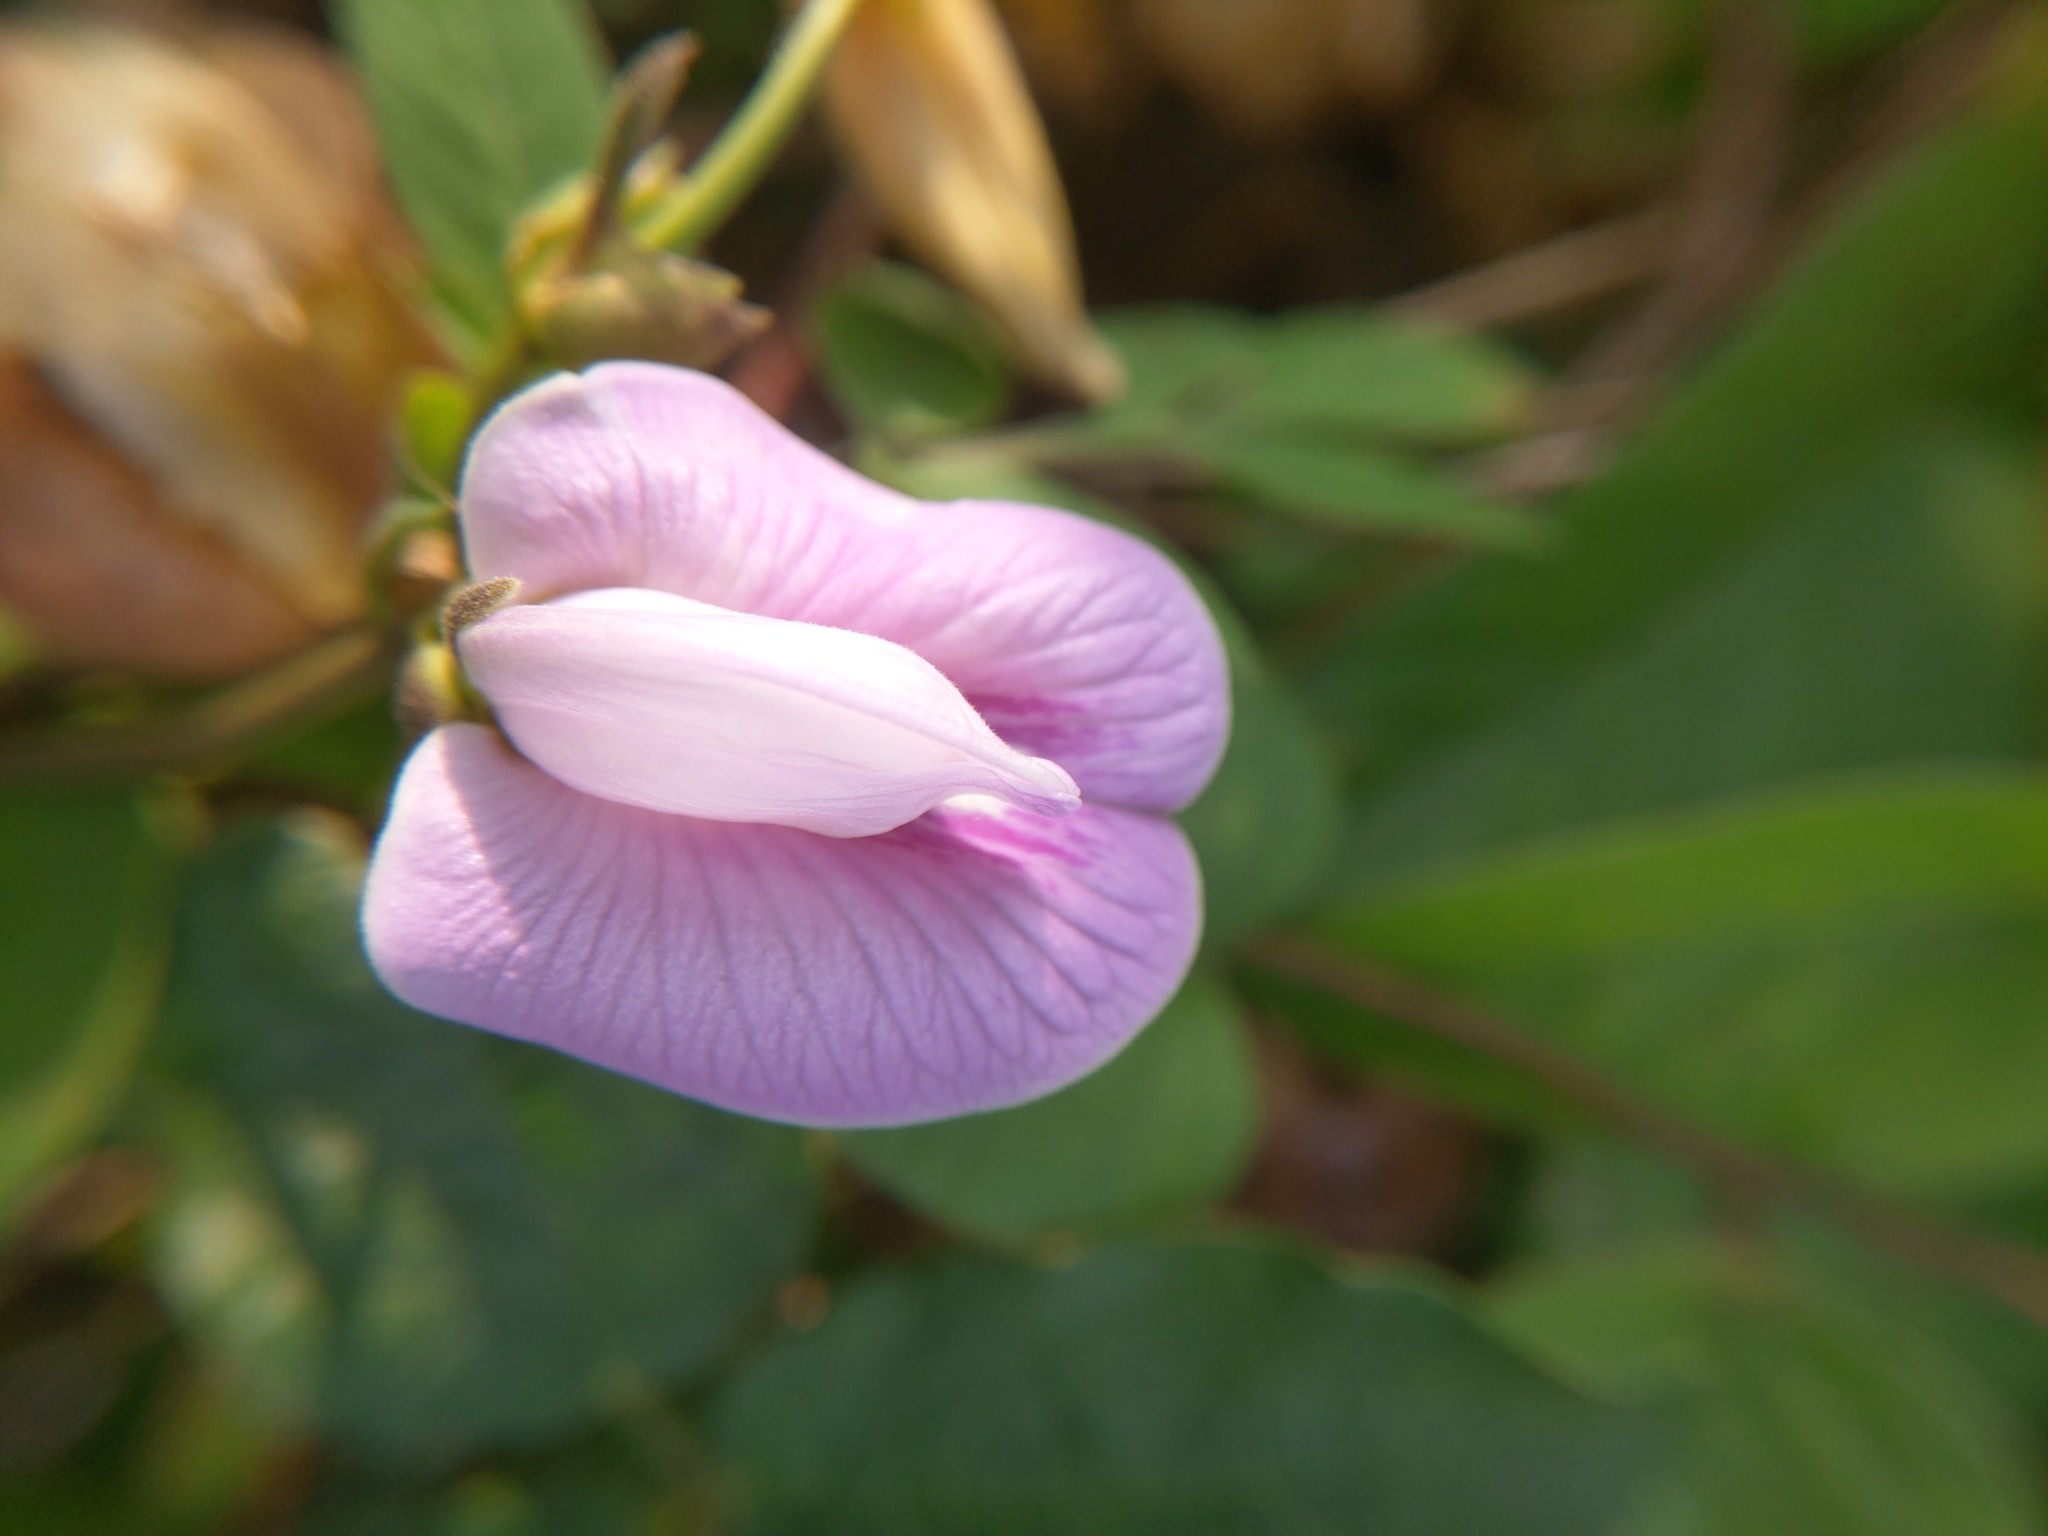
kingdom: Plantae
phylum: Tracheophyta
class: Magnoliopsida
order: Fabales
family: Fabaceae
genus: Centrosema
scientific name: Centrosema pubescens
